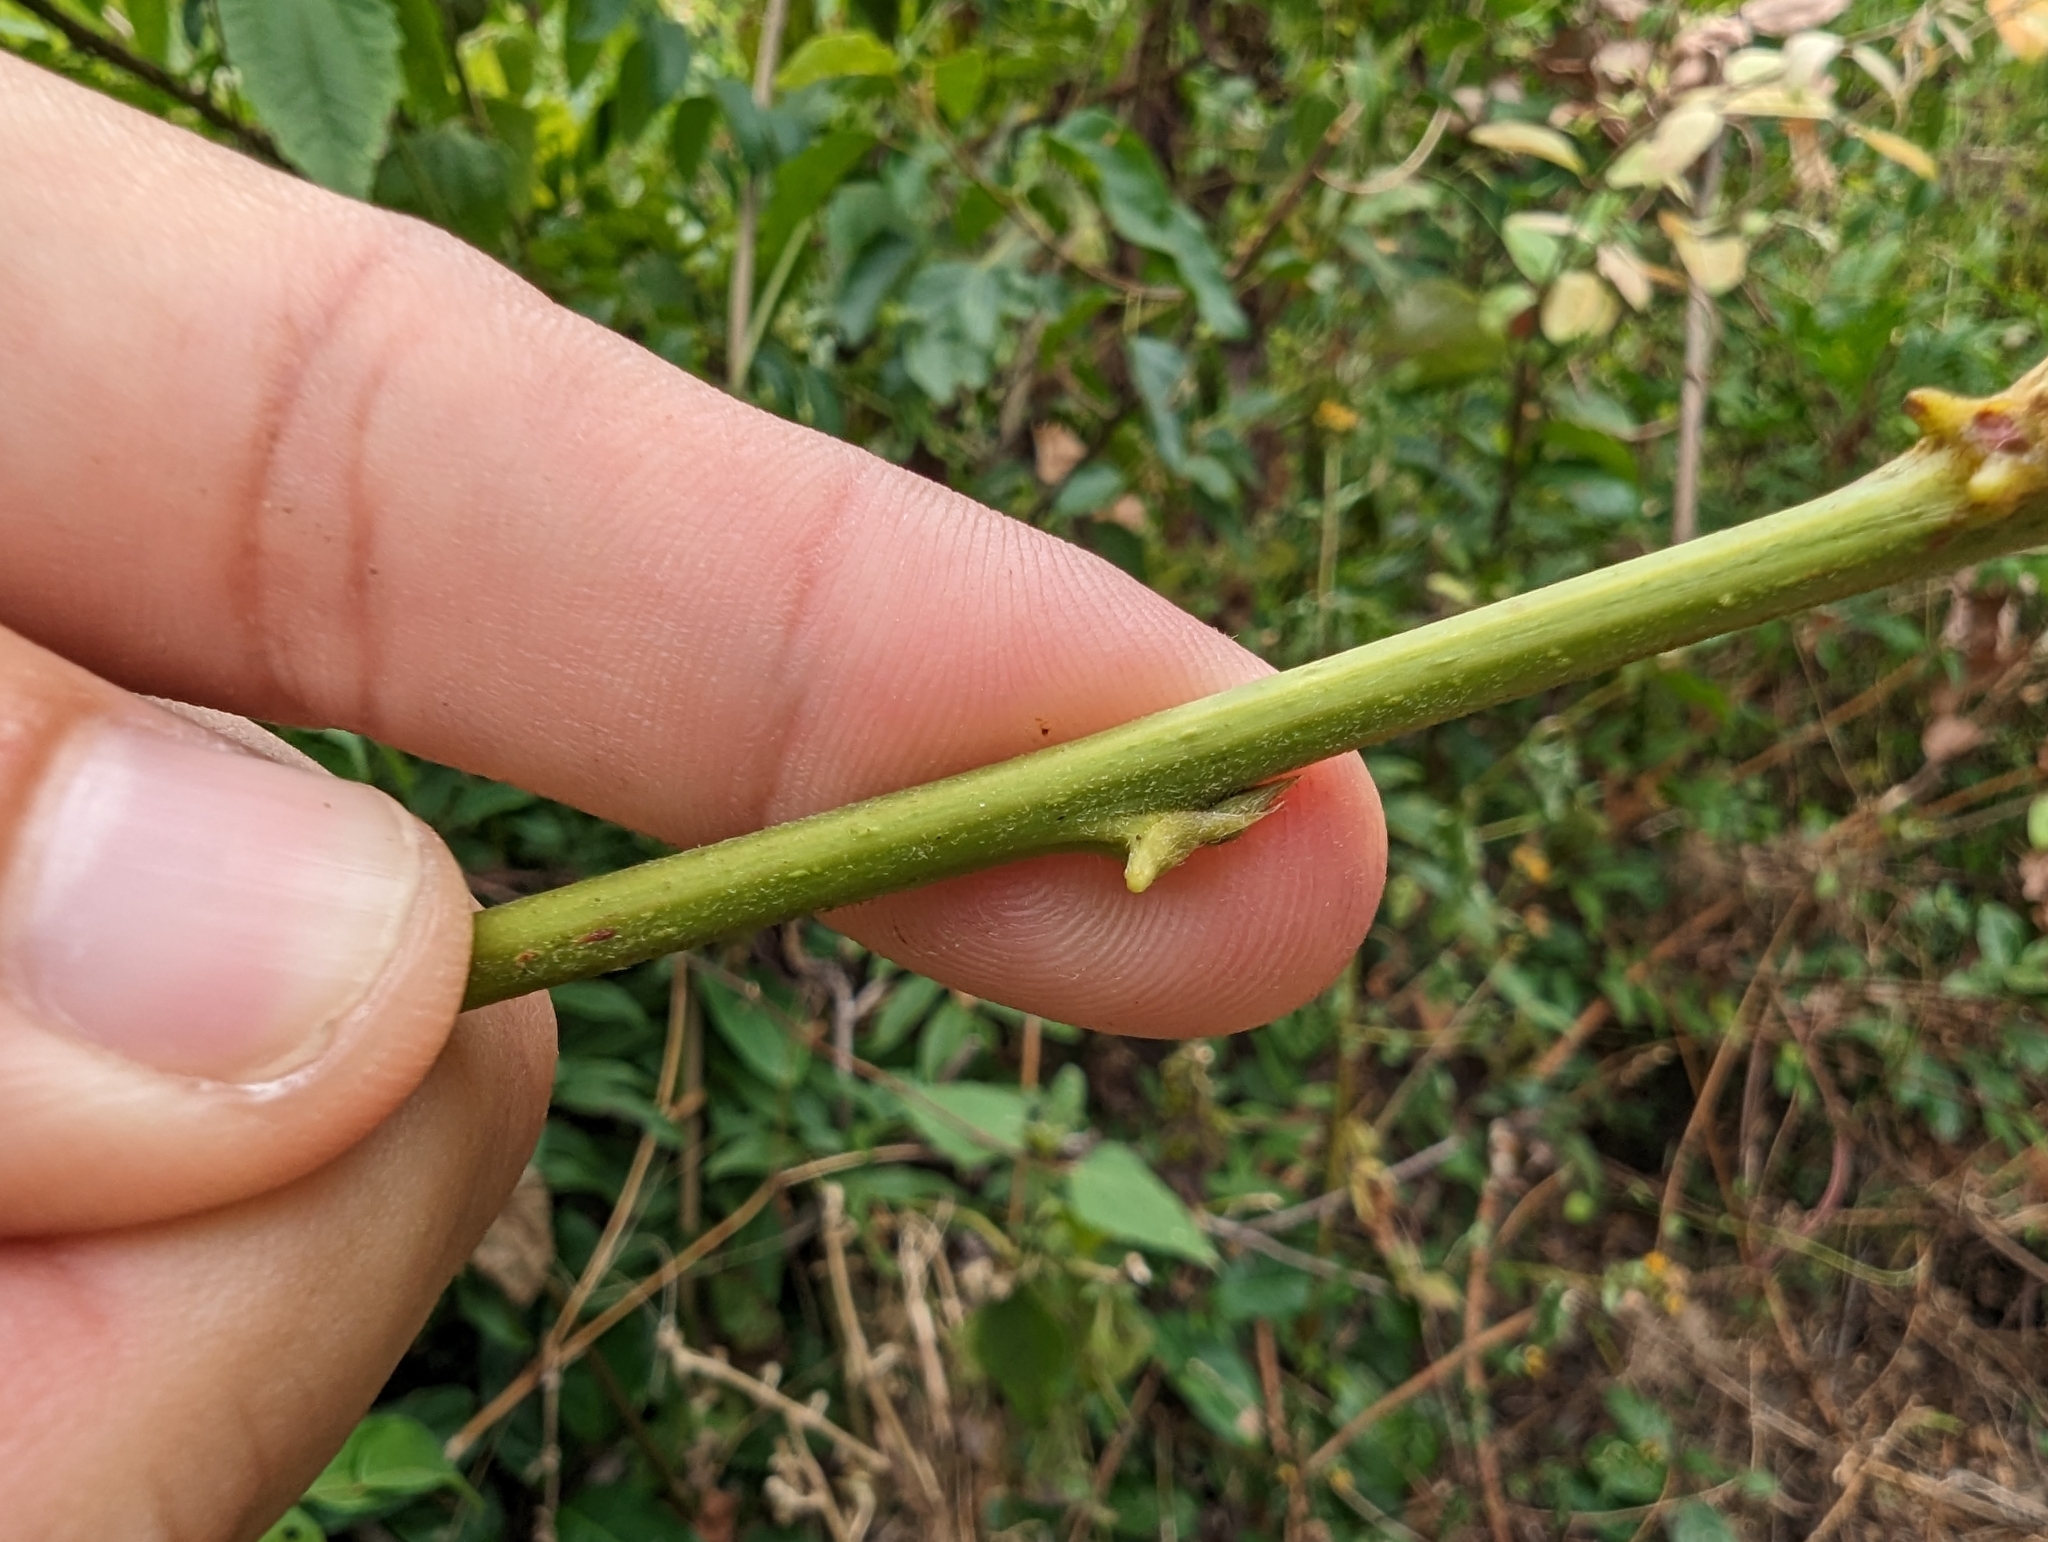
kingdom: Plantae
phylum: Tracheophyta
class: Magnoliopsida
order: Fabales
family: Fabaceae
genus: Wisteriopsis
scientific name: Wisteriopsis reticulata
